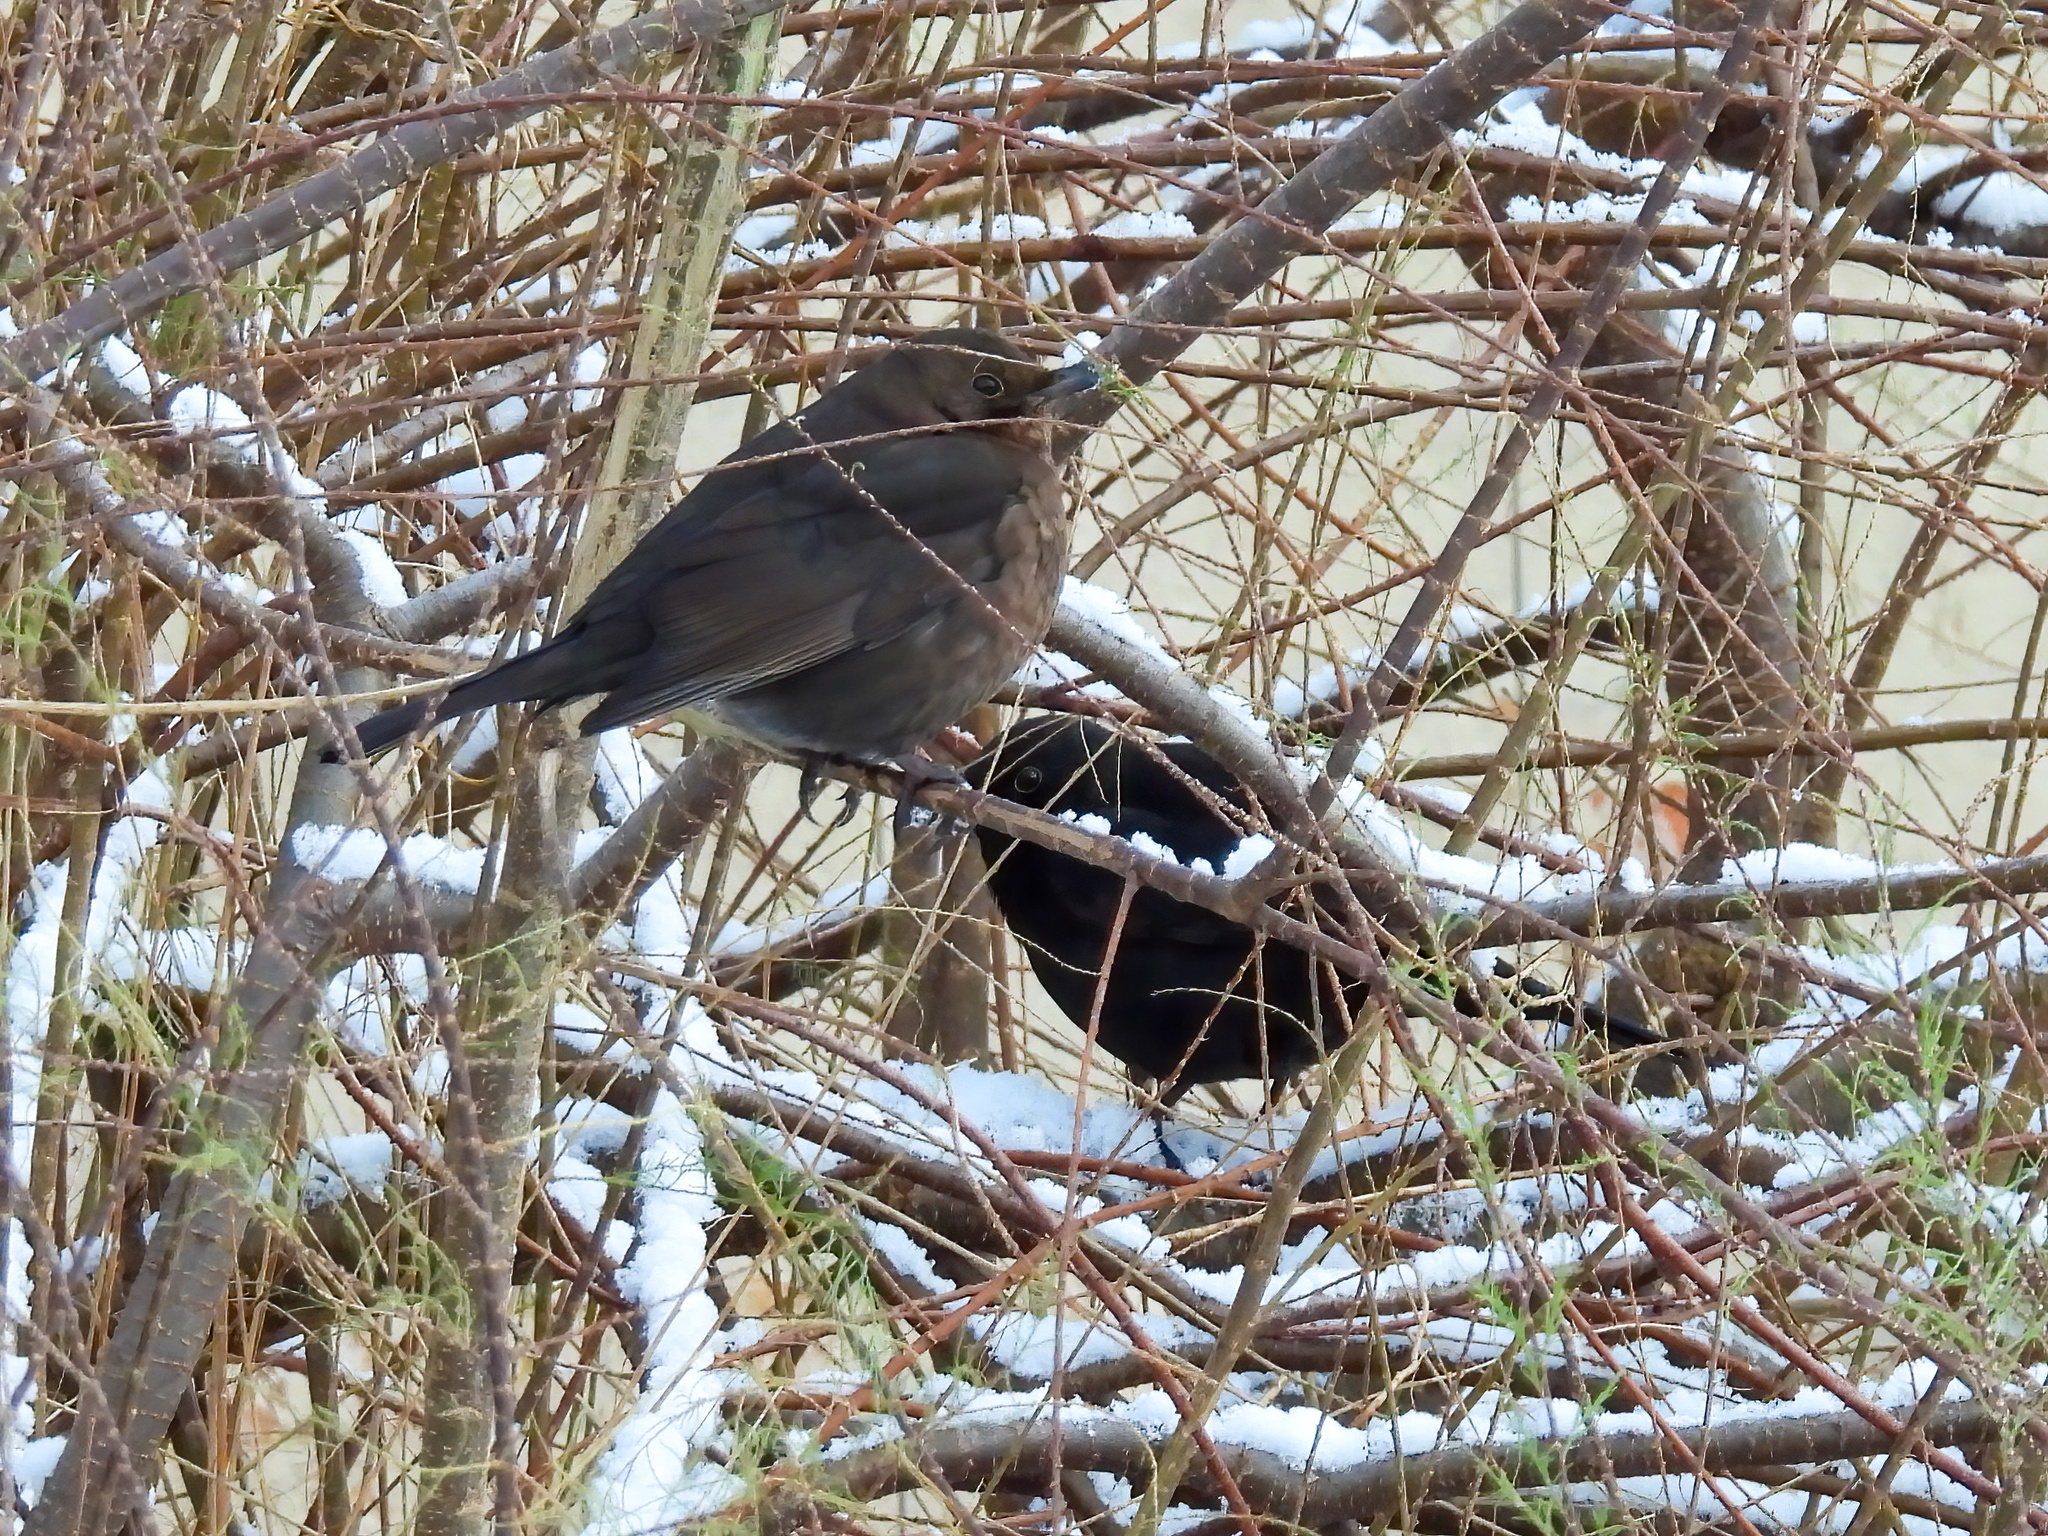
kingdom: Animalia
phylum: Chordata
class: Aves
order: Passeriformes
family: Turdidae
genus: Turdus
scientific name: Turdus merula
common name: Common blackbird
